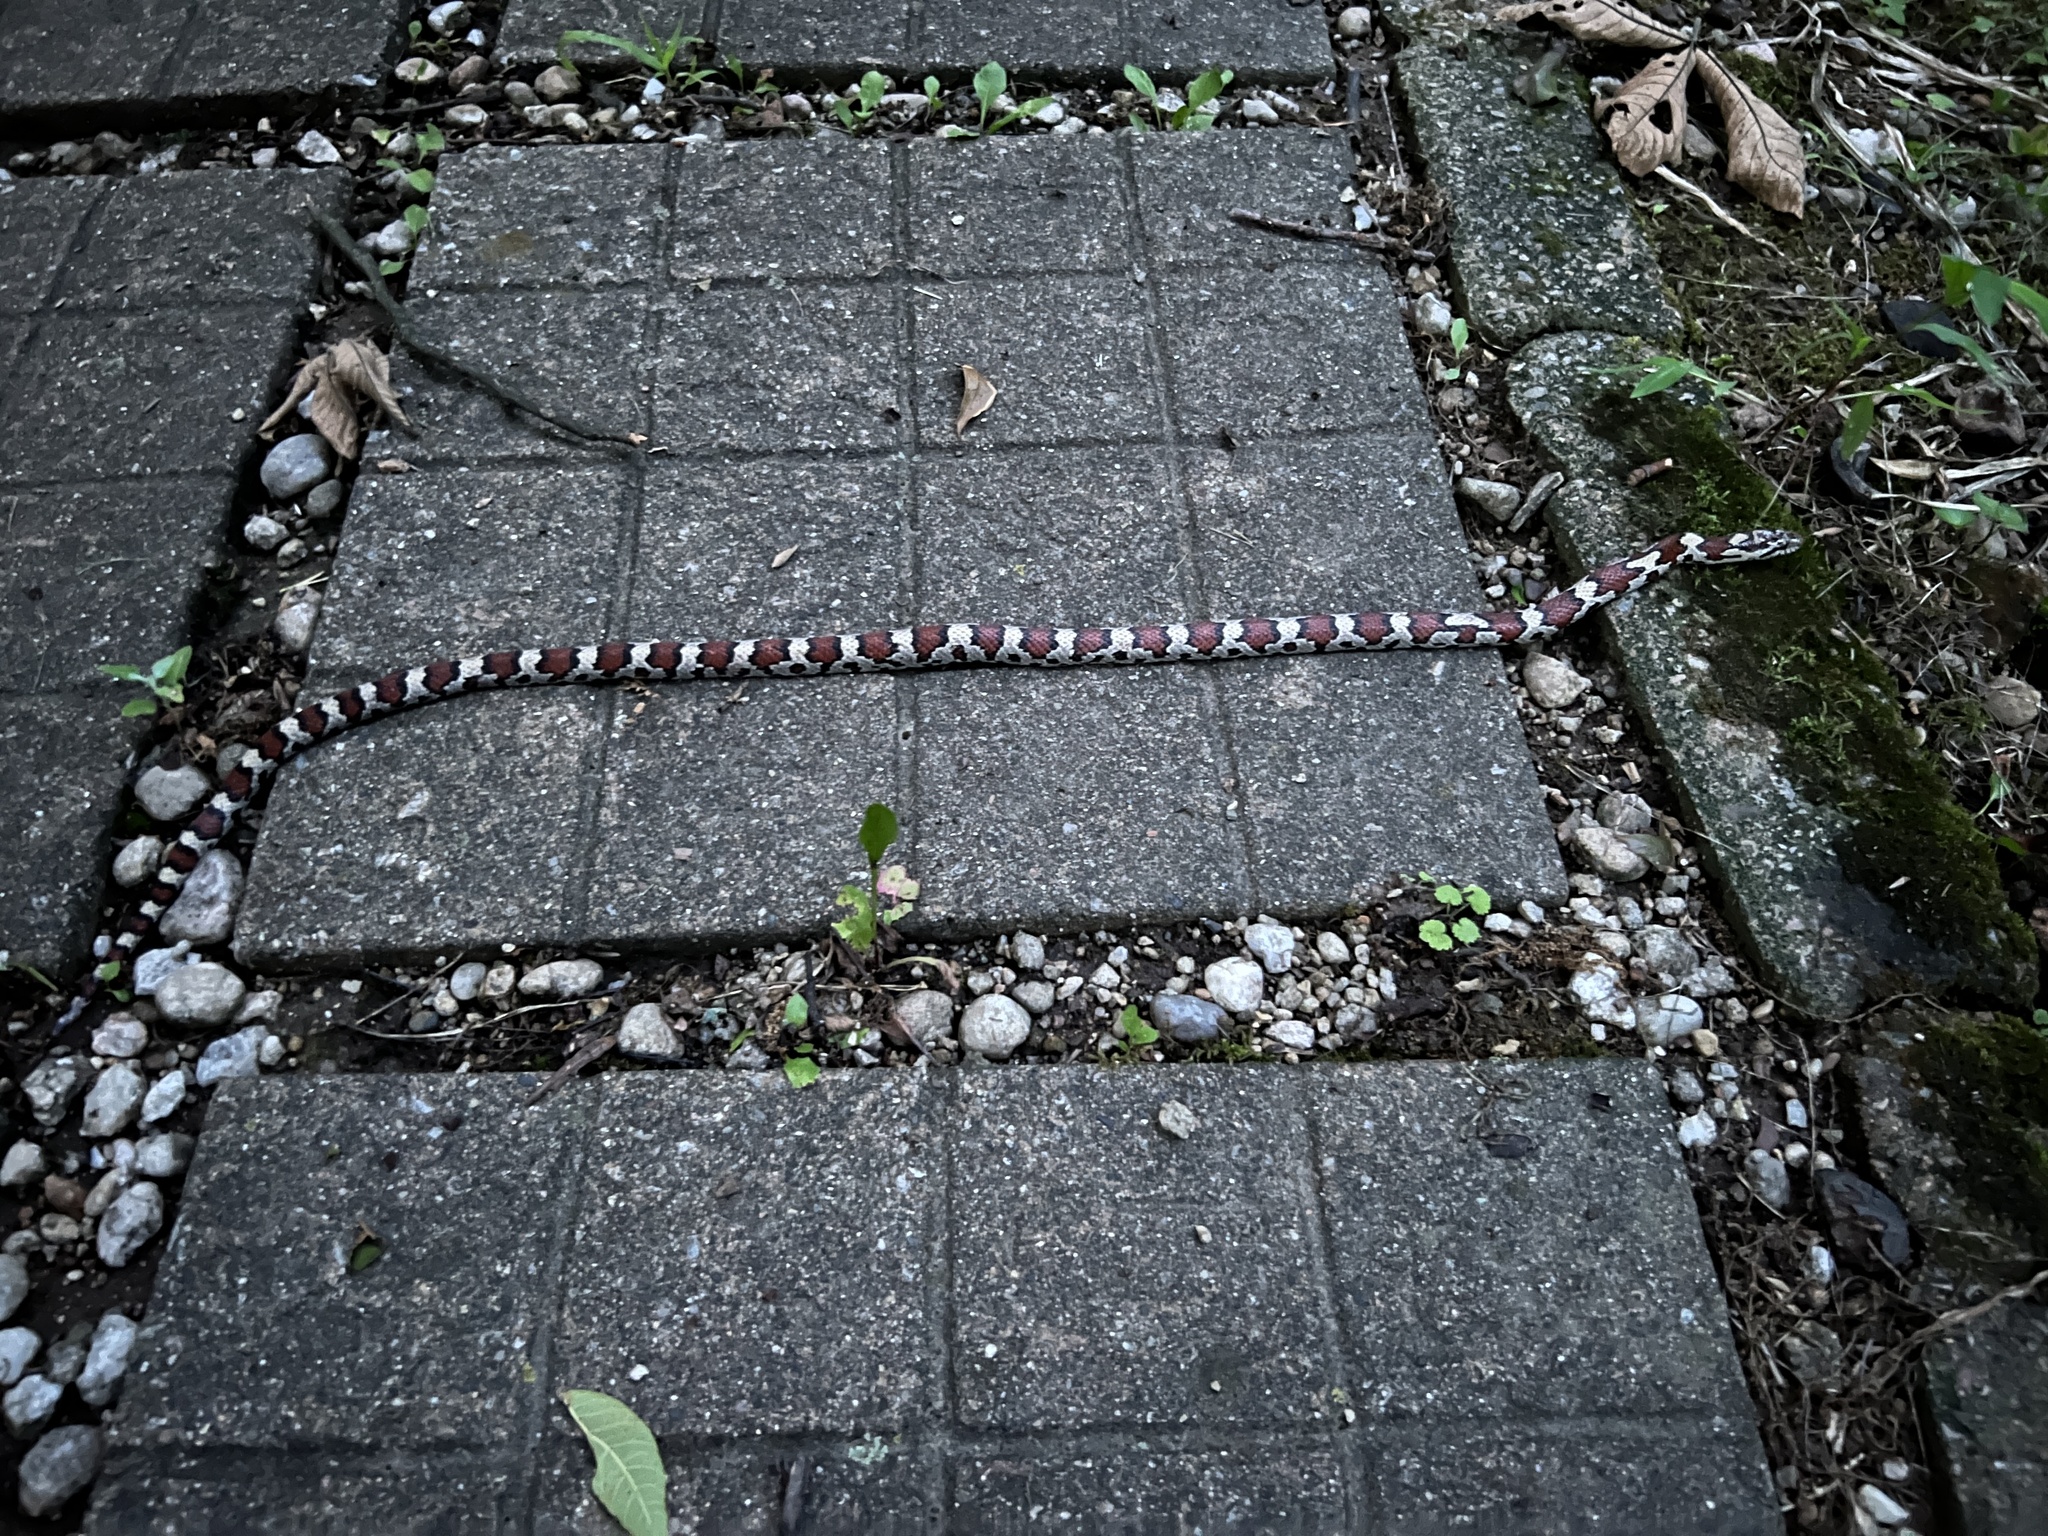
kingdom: Animalia
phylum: Chordata
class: Squamata
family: Colubridae
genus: Lampropeltis
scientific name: Lampropeltis triangulum
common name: Eastern milksnake
